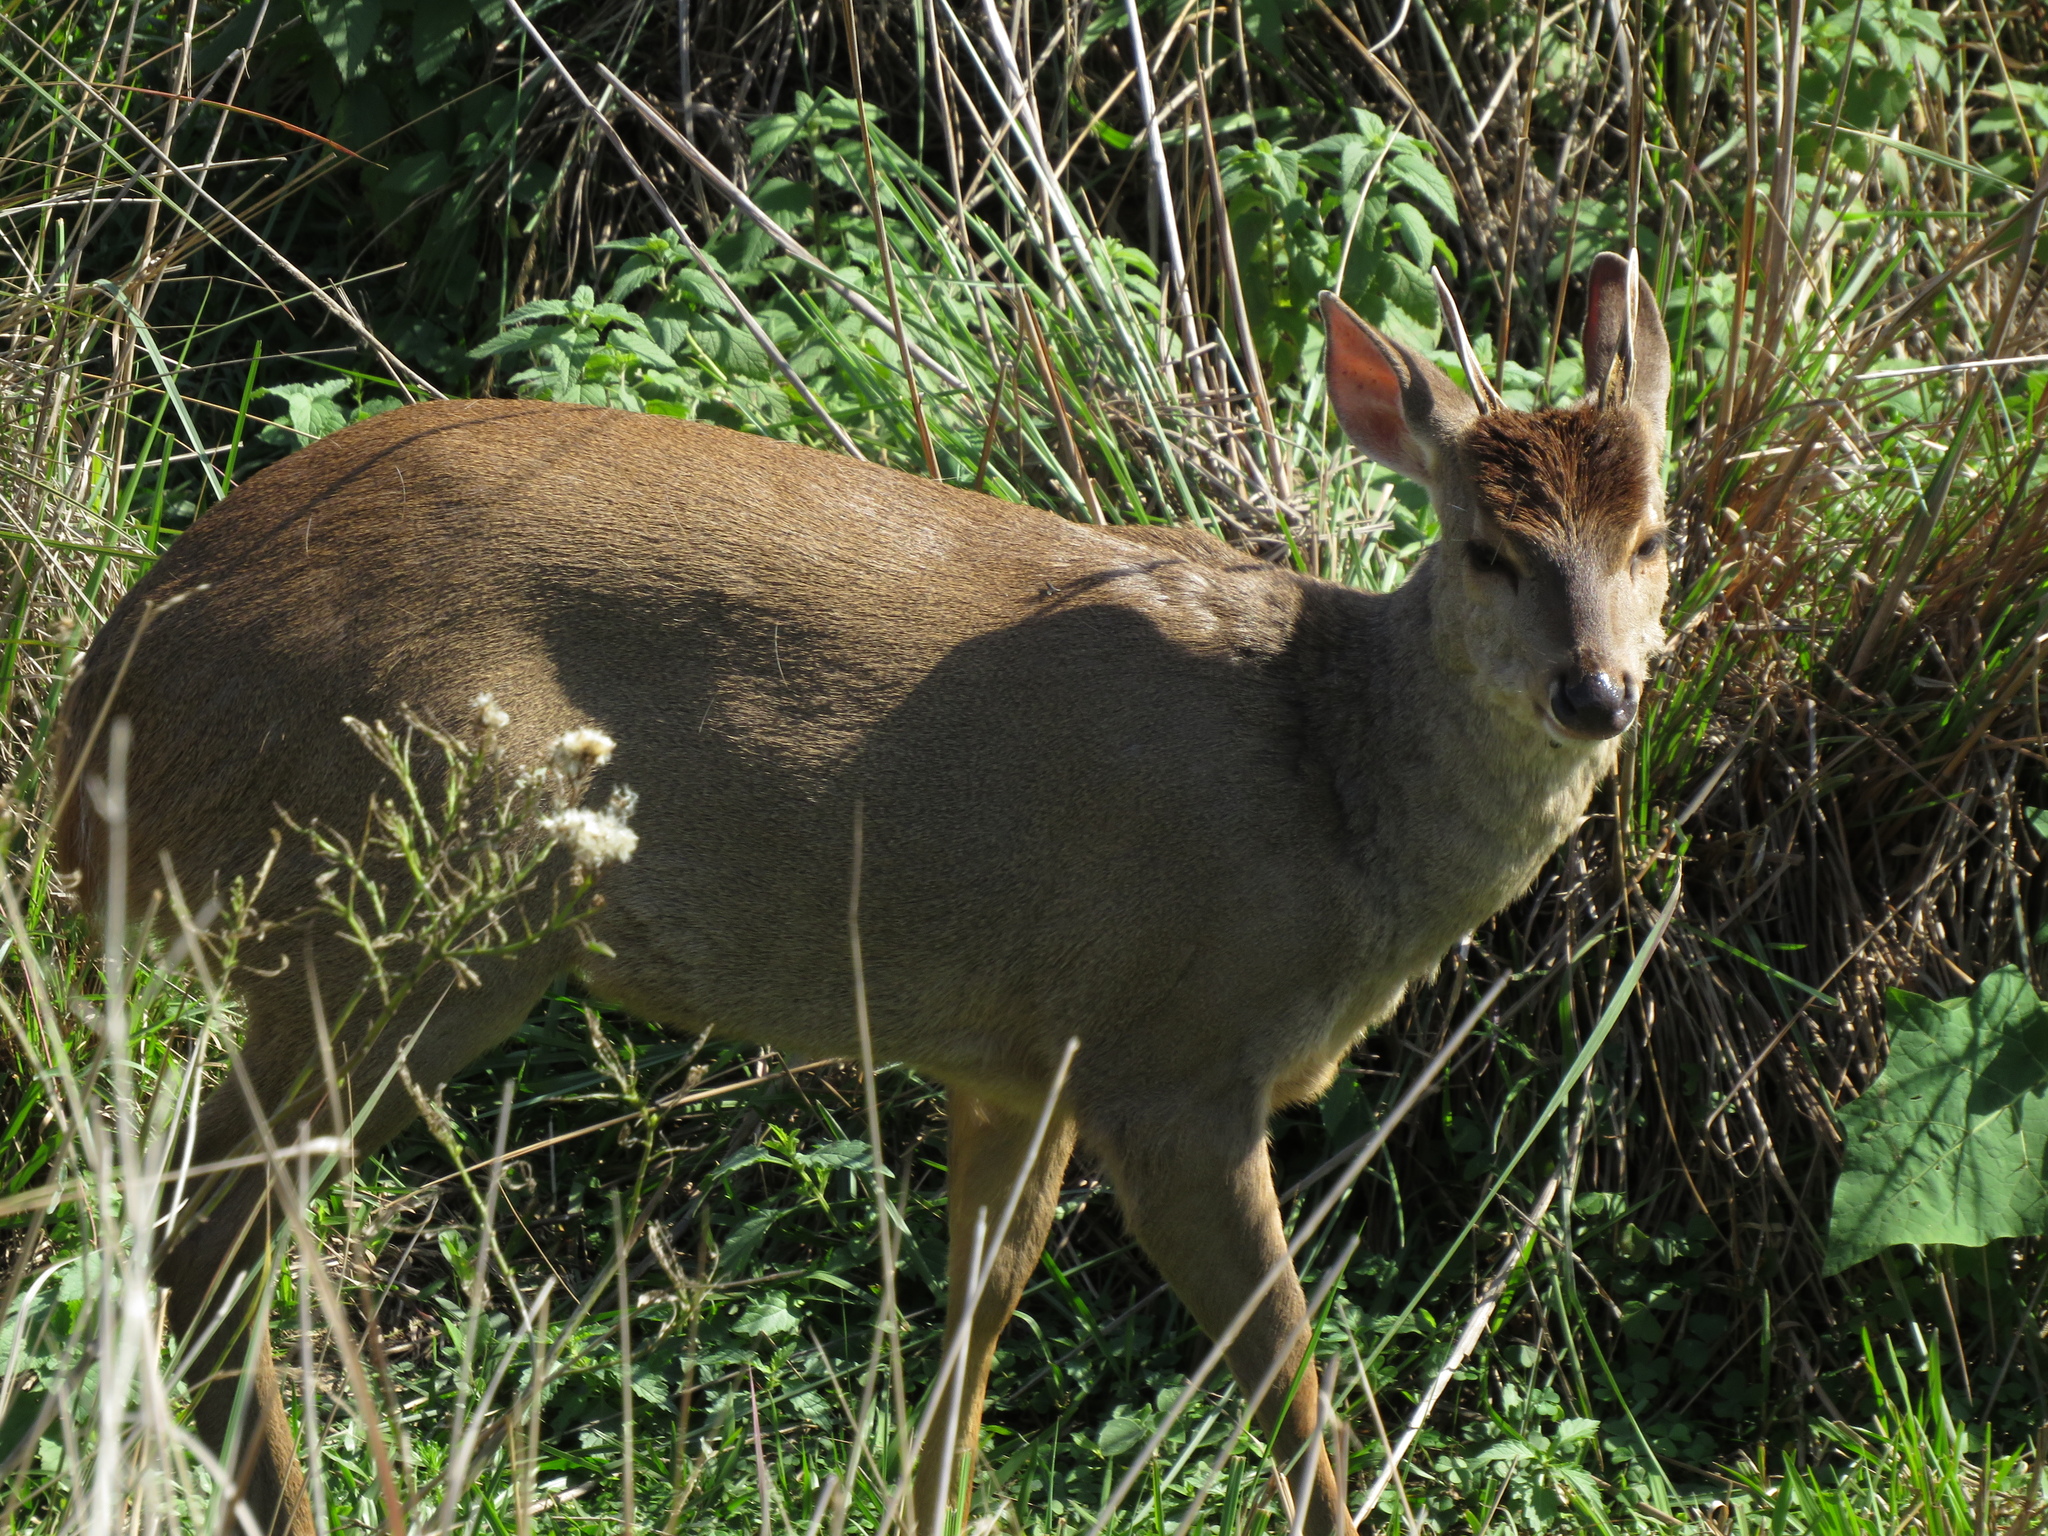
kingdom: Animalia
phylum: Chordata
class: Mammalia
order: Artiodactyla
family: Cervidae
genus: Mazama
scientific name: Mazama gouazoubira
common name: Gray brocket
